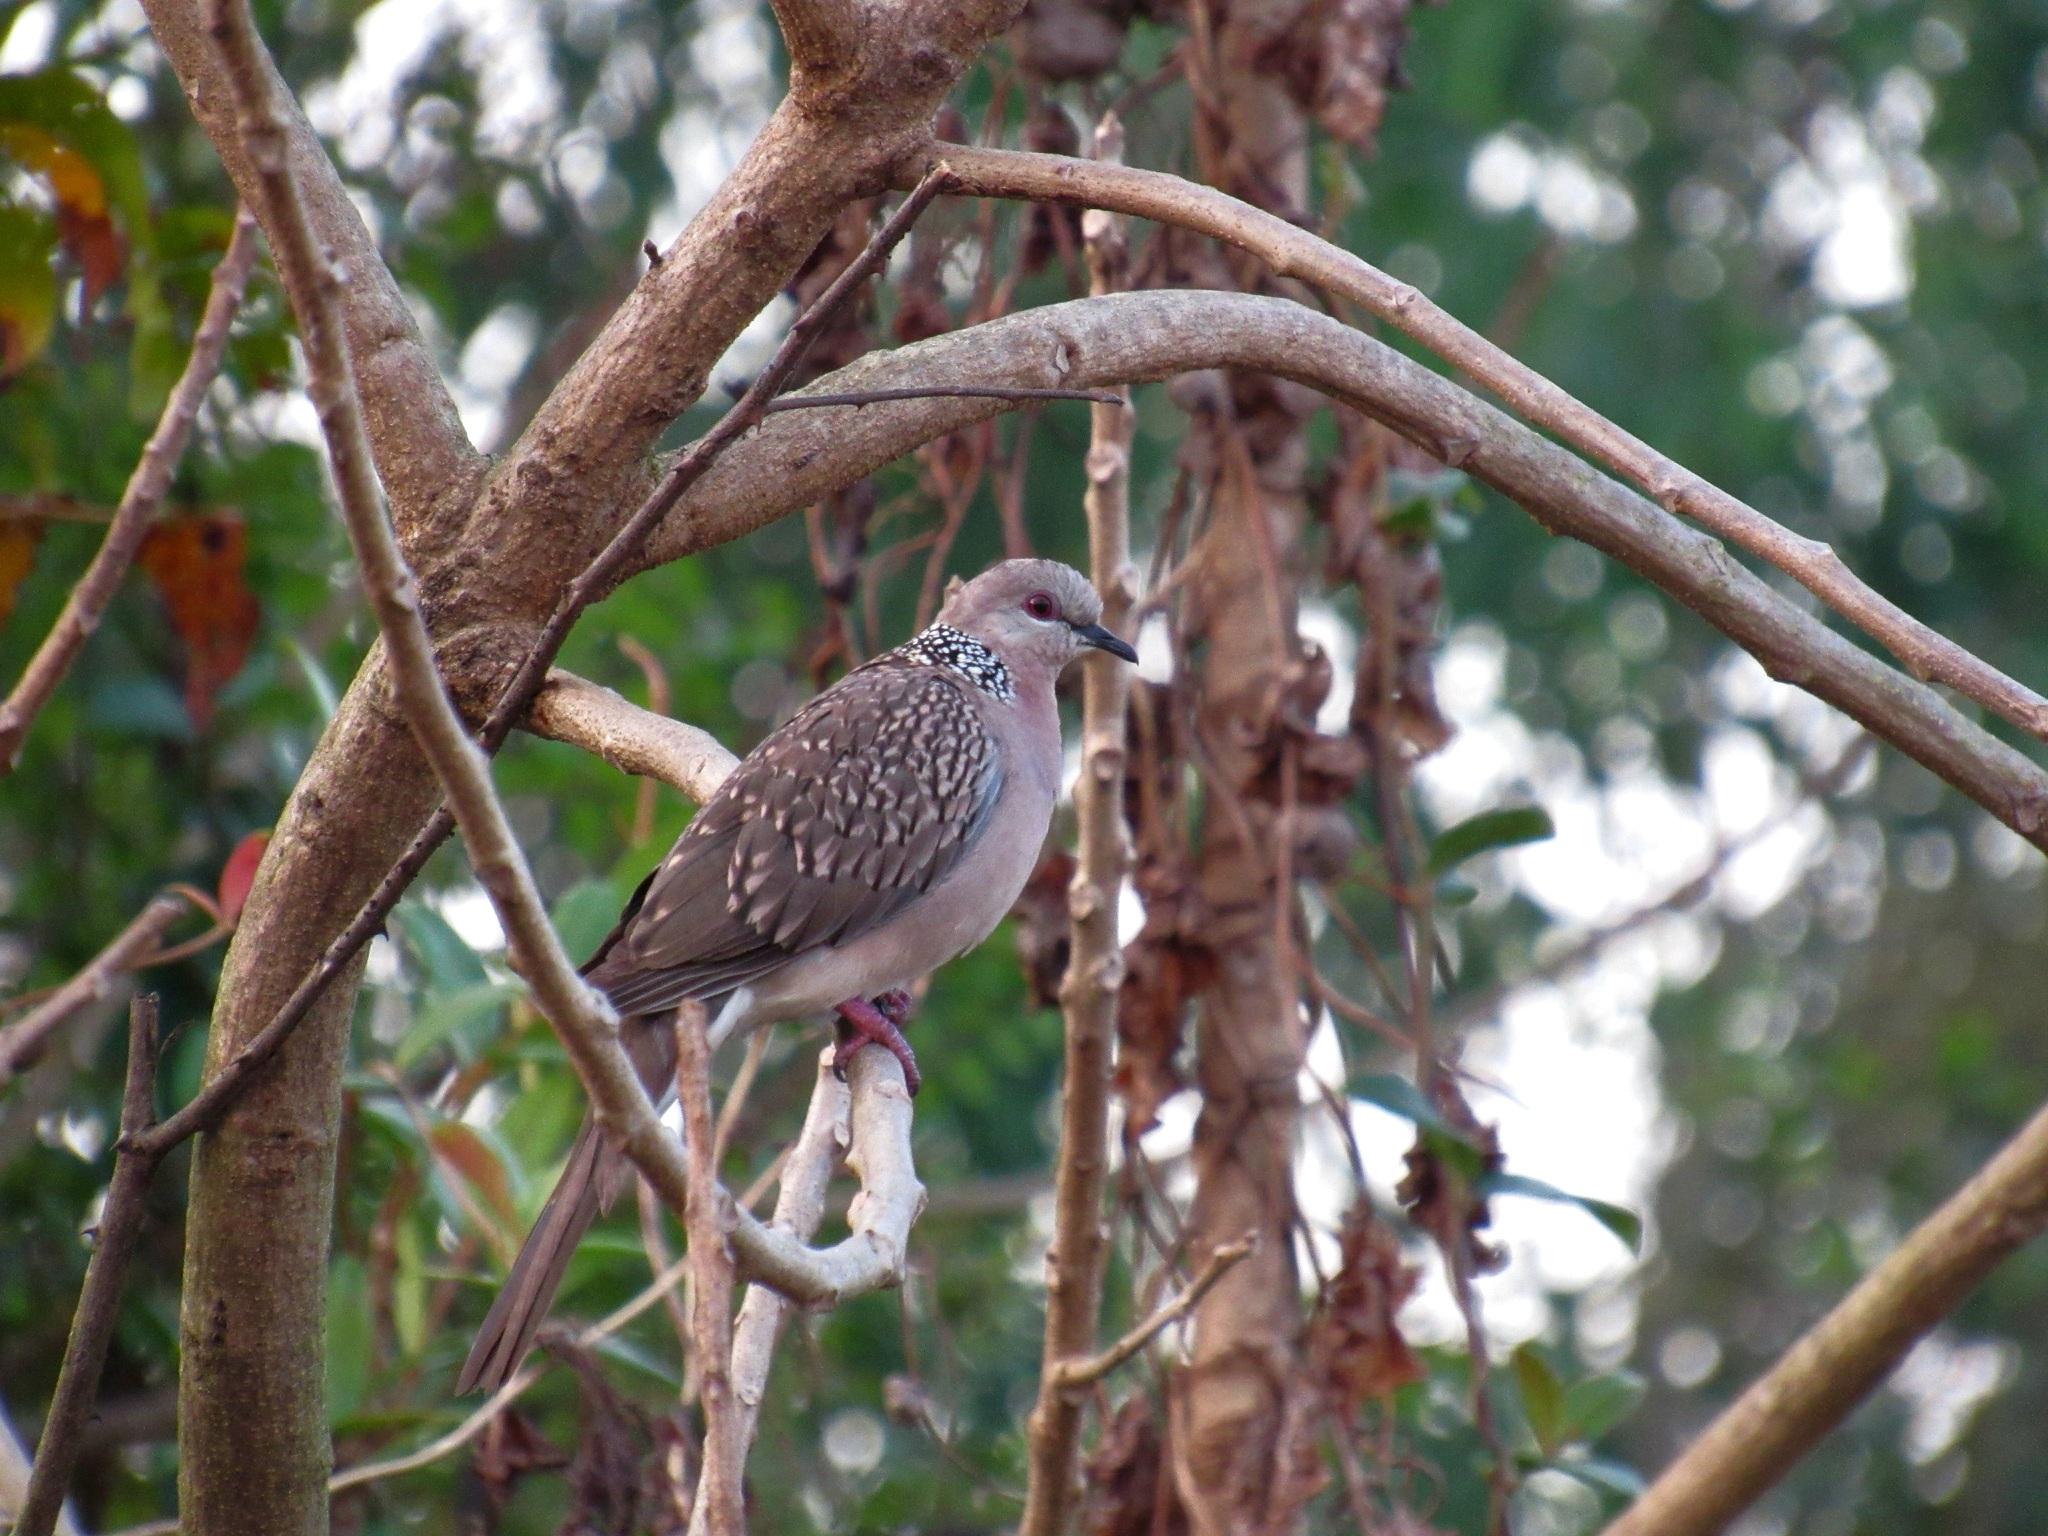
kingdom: Animalia
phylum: Chordata
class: Aves
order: Columbiformes
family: Columbidae
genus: Spilopelia
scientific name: Spilopelia chinensis
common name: Spotted dove
